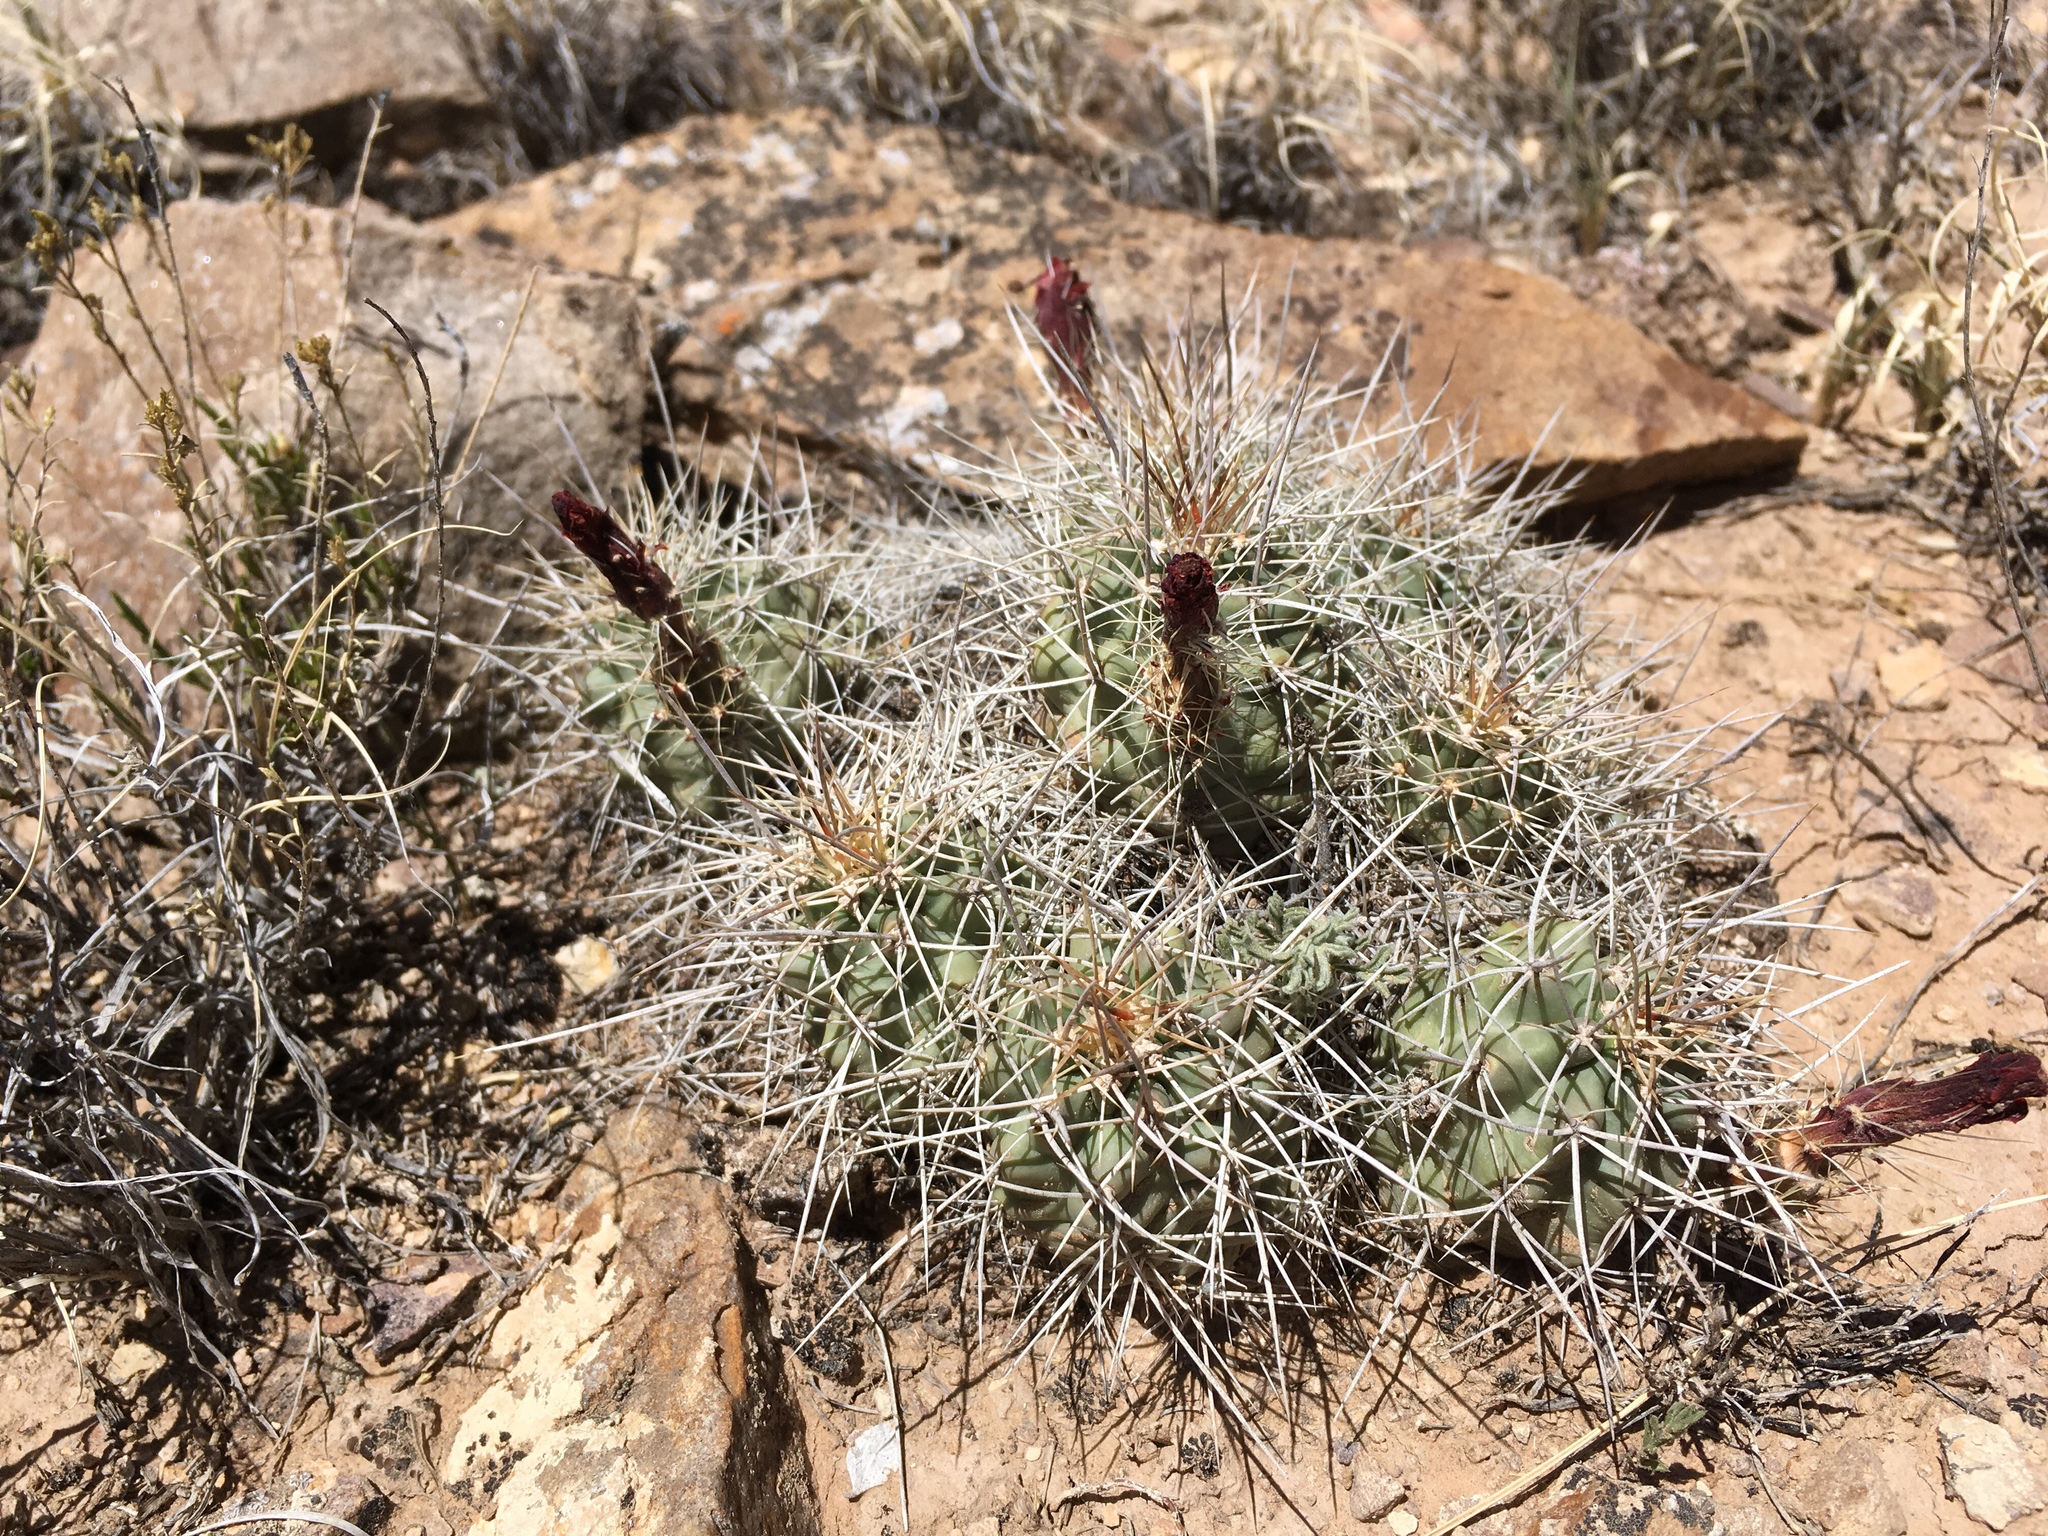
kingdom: Plantae
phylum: Tracheophyta
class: Magnoliopsida
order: Caryophyllales
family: Cactaceae
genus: Echinocereus
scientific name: Echinocereus triglochidiatus
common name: Claretcup hedgehog
